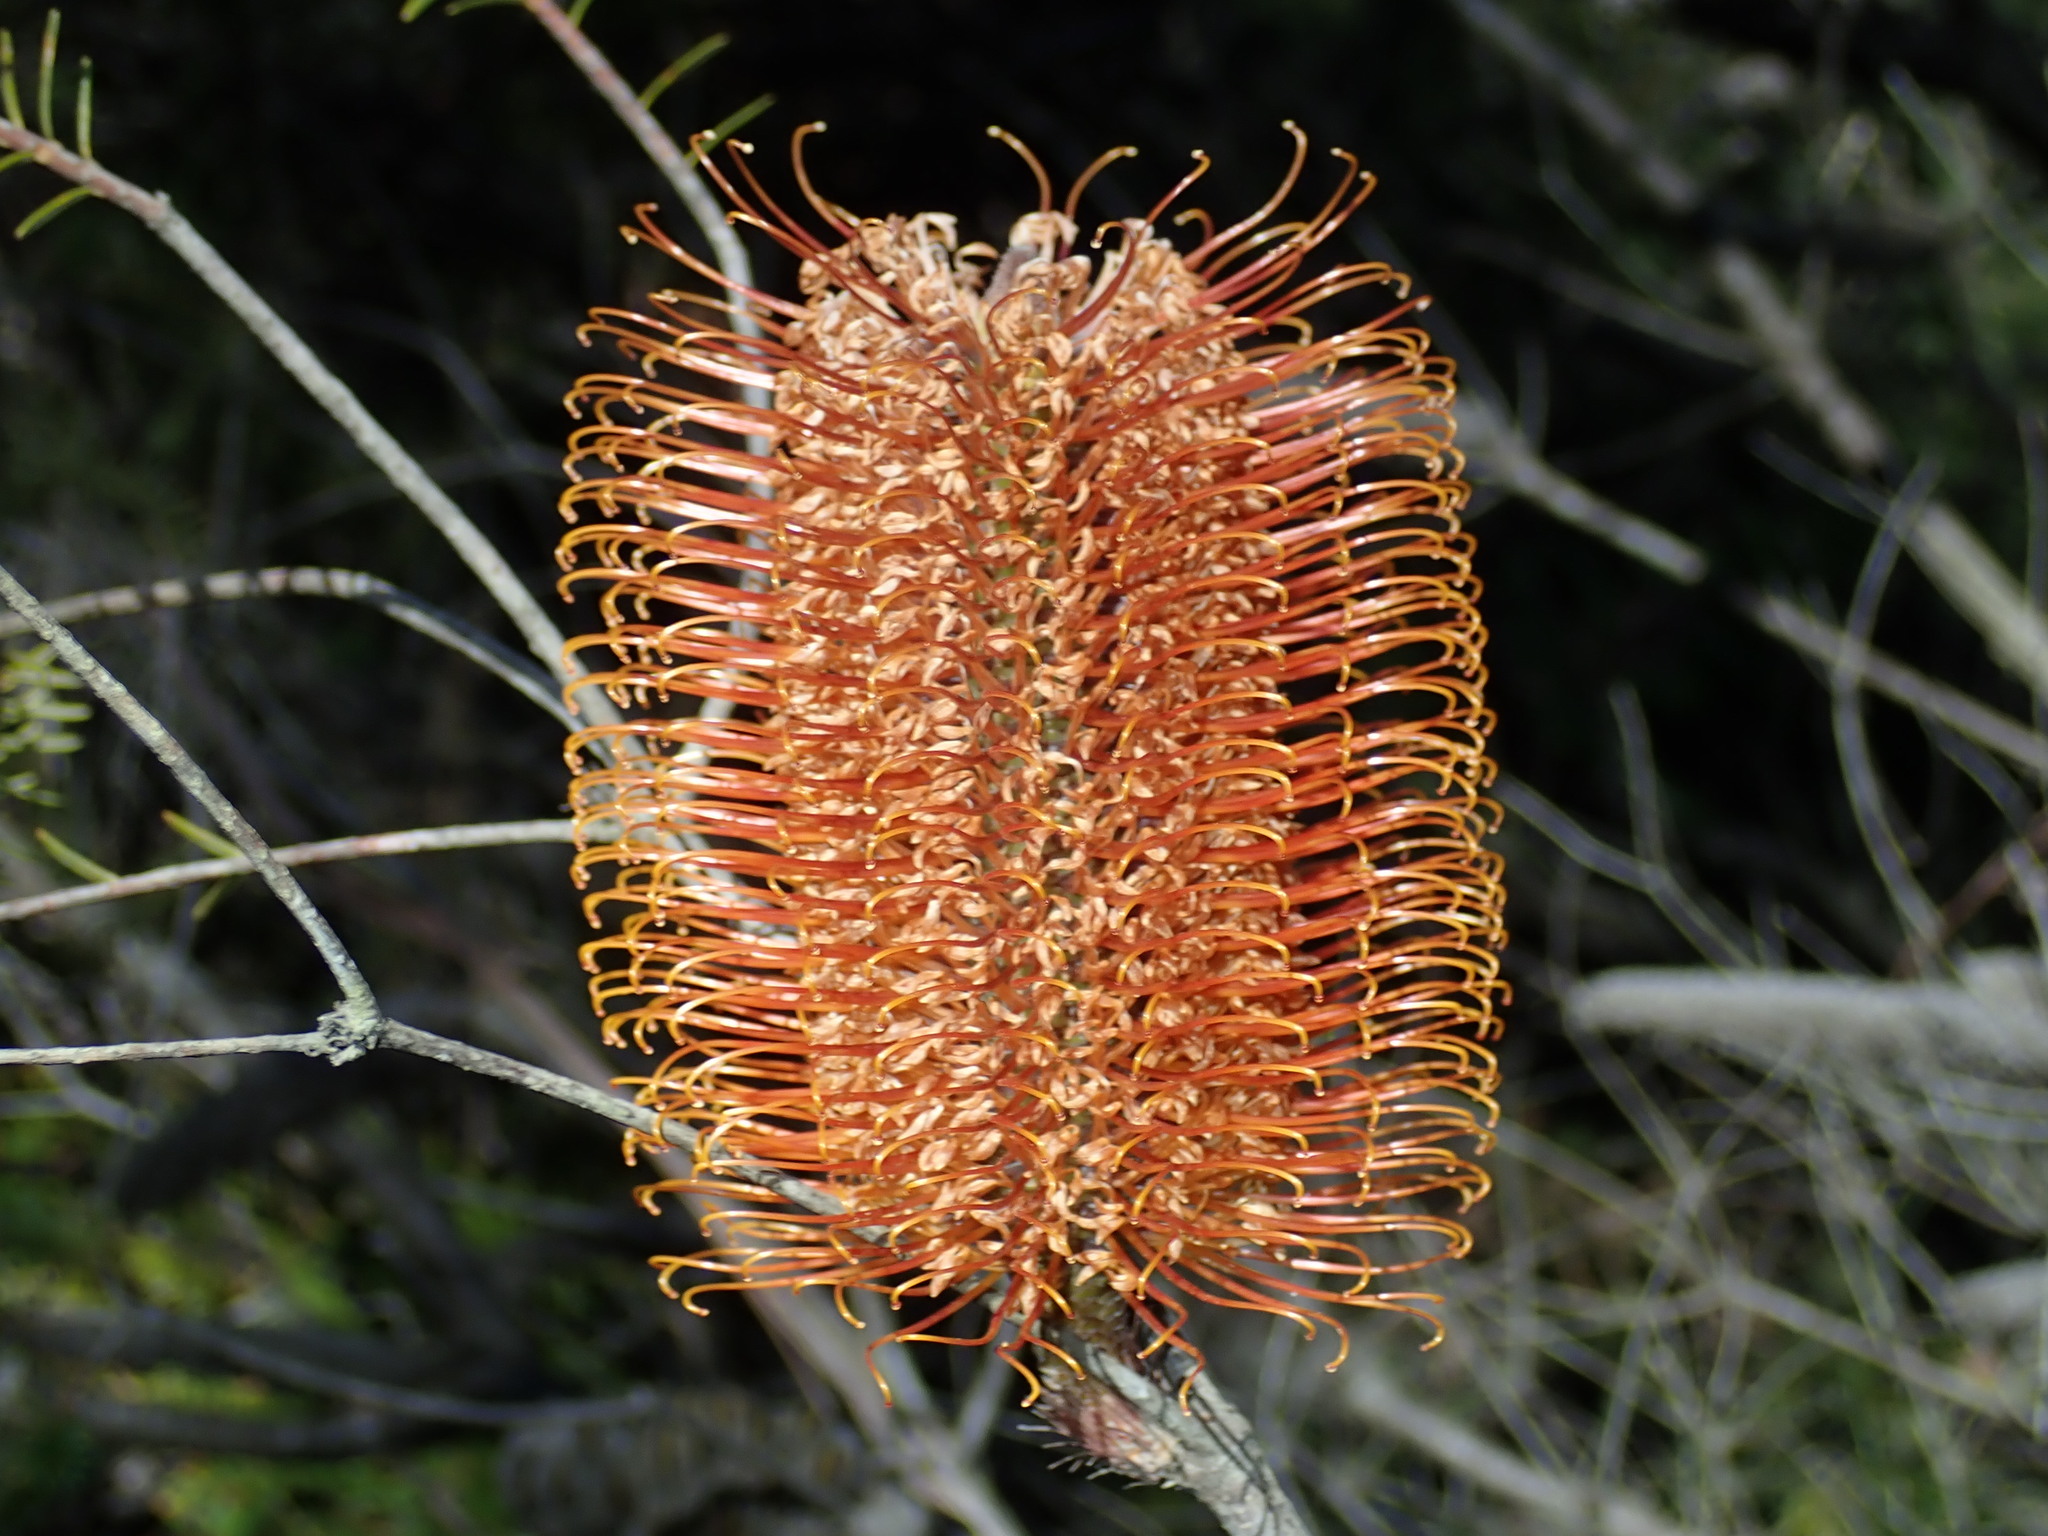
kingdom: Plantae
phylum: Tracheophyta
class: Magnoliopsida
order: Proteales
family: Proteaceae
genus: Banksia
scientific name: Banksia ericifolia
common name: Heath-leaf banksia
